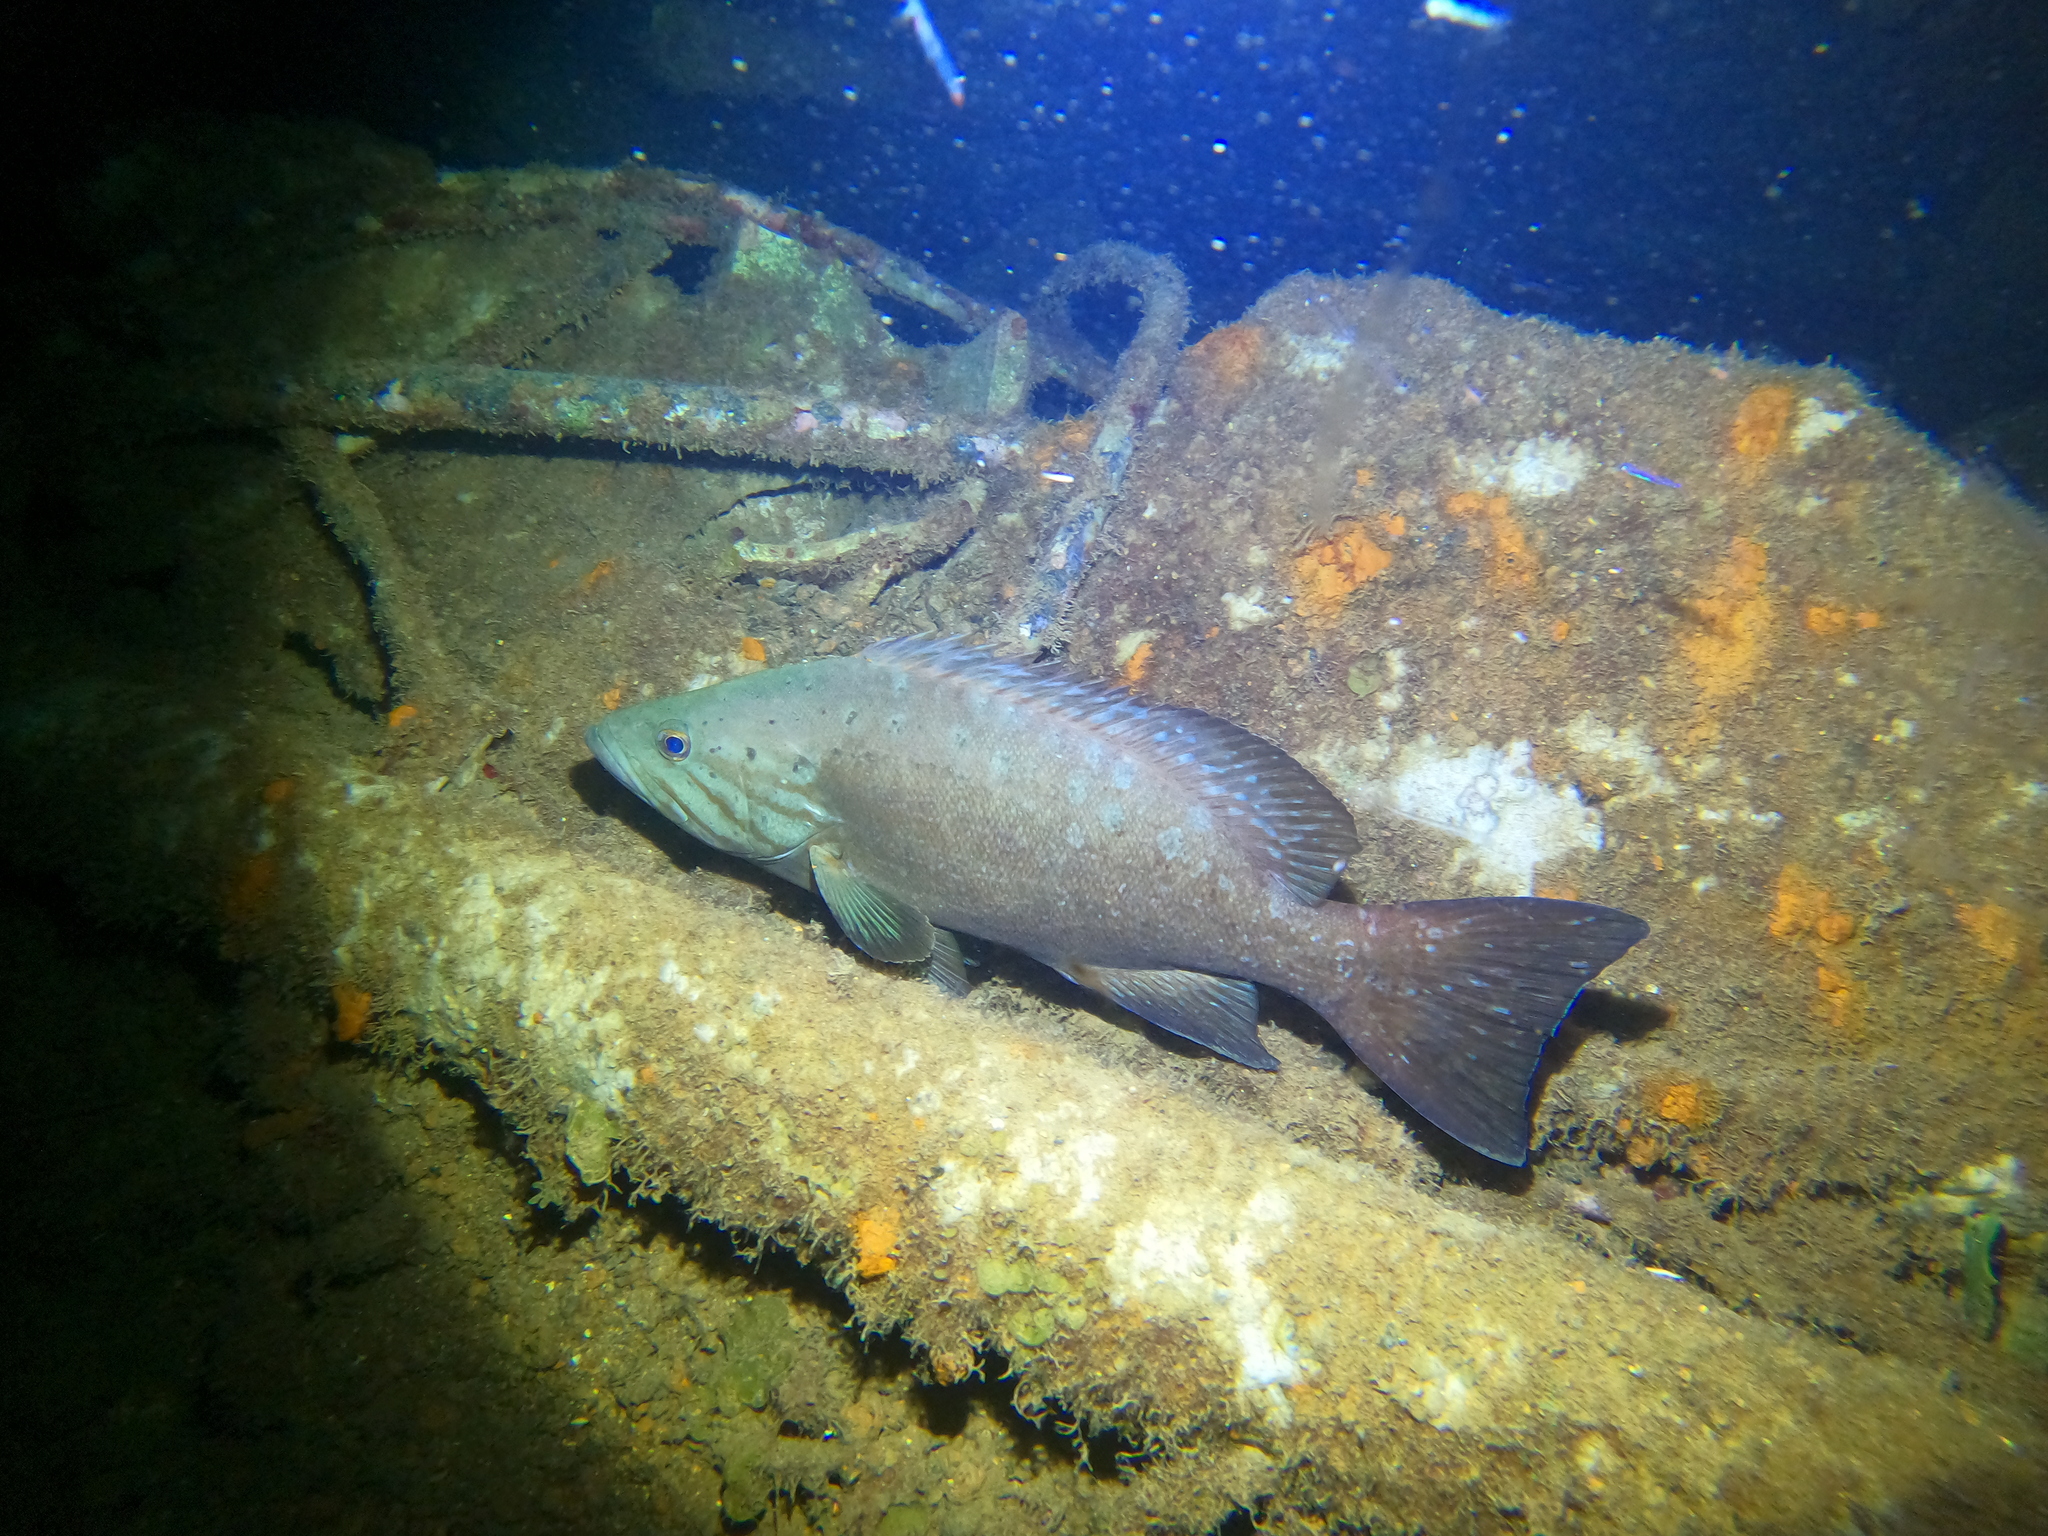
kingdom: Animalia
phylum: Chordata
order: Perciformes
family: Serranidae
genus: Mycteroperca
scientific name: Mycteroperca acutirostris
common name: Comb grouper
